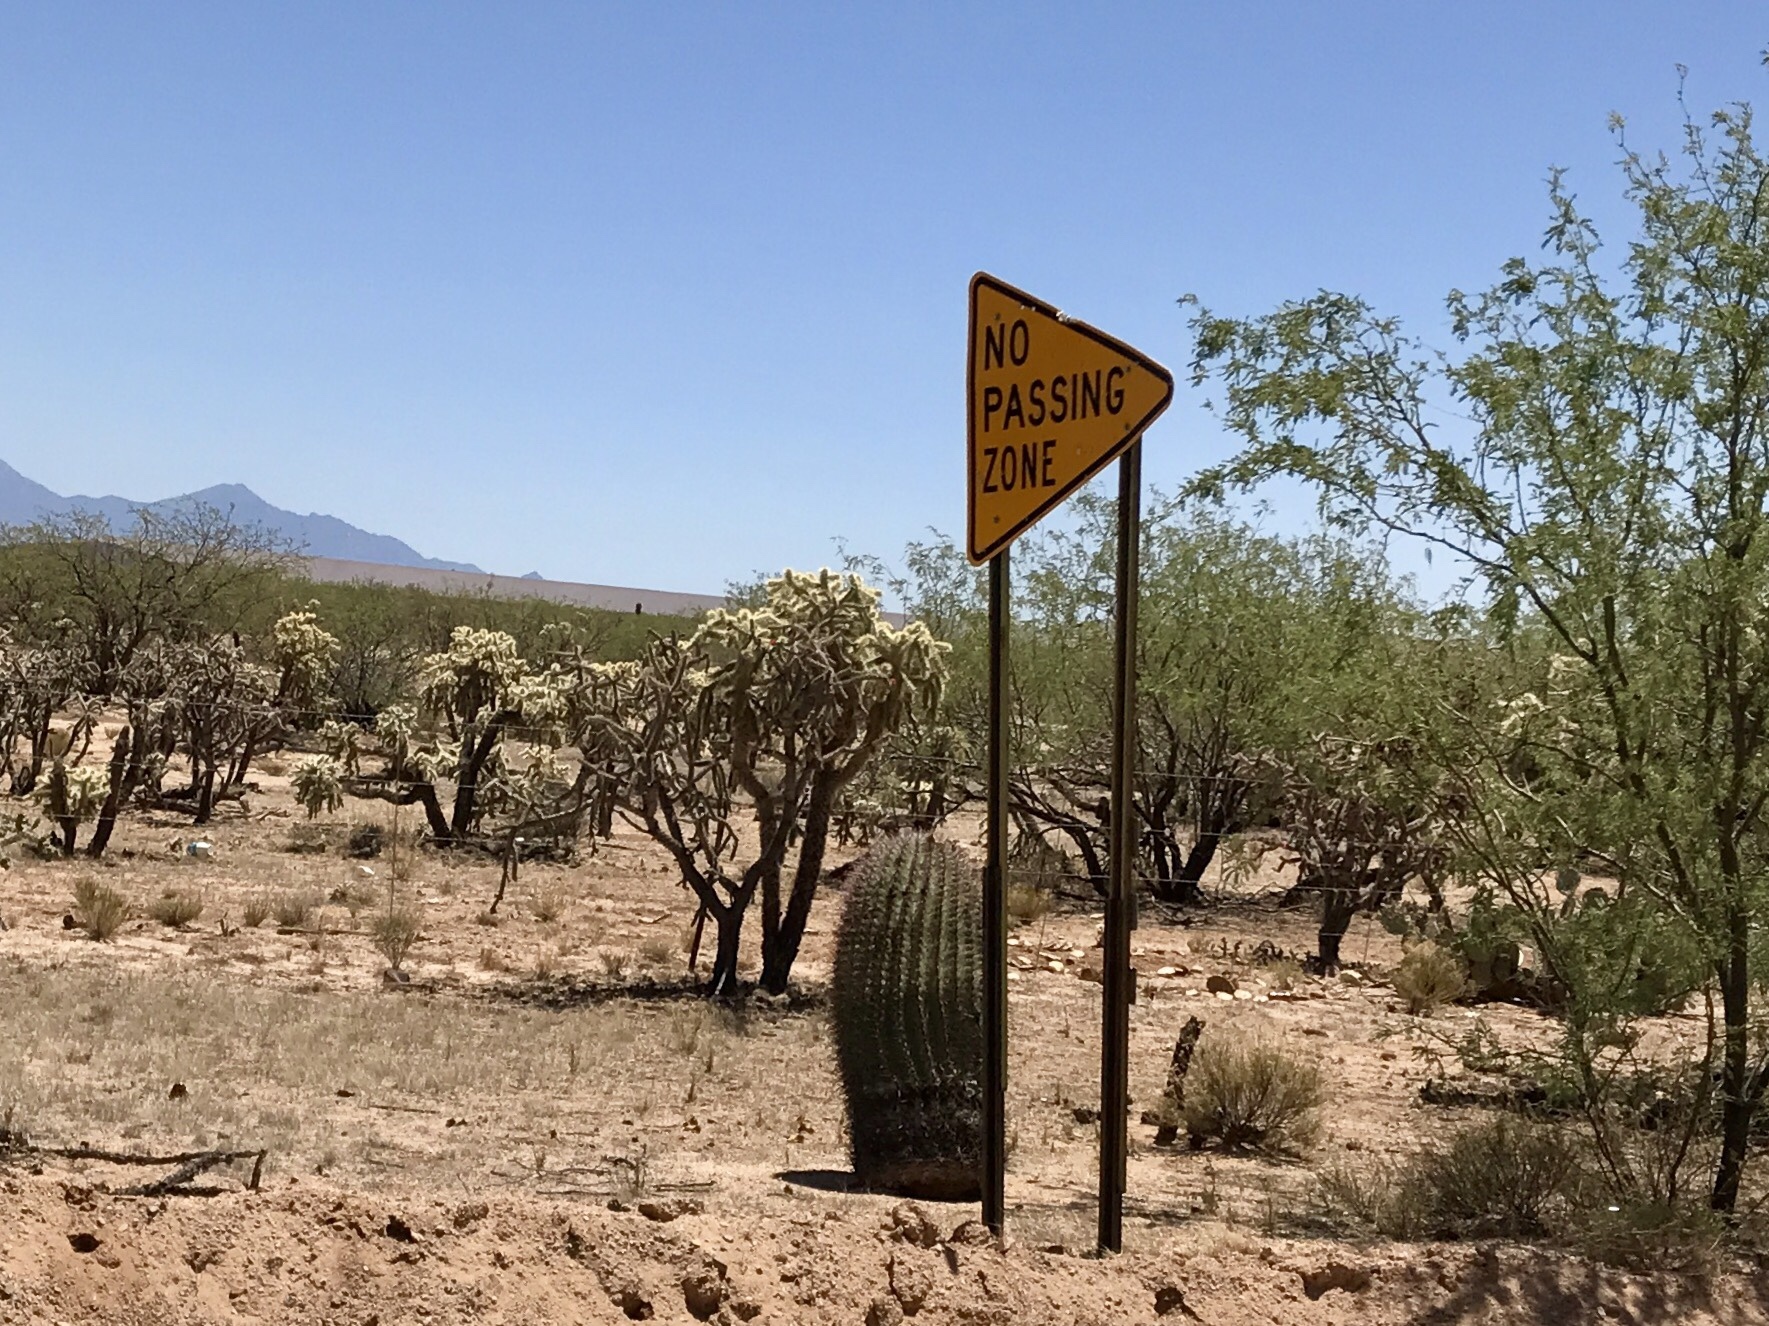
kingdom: Plantae
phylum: Tracheophyta
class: Magnoliopsida
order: Caryophyllales
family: Cactaceae
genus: Ferocactus
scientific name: Ferocactus wislizeni
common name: Candy barrel cactus
